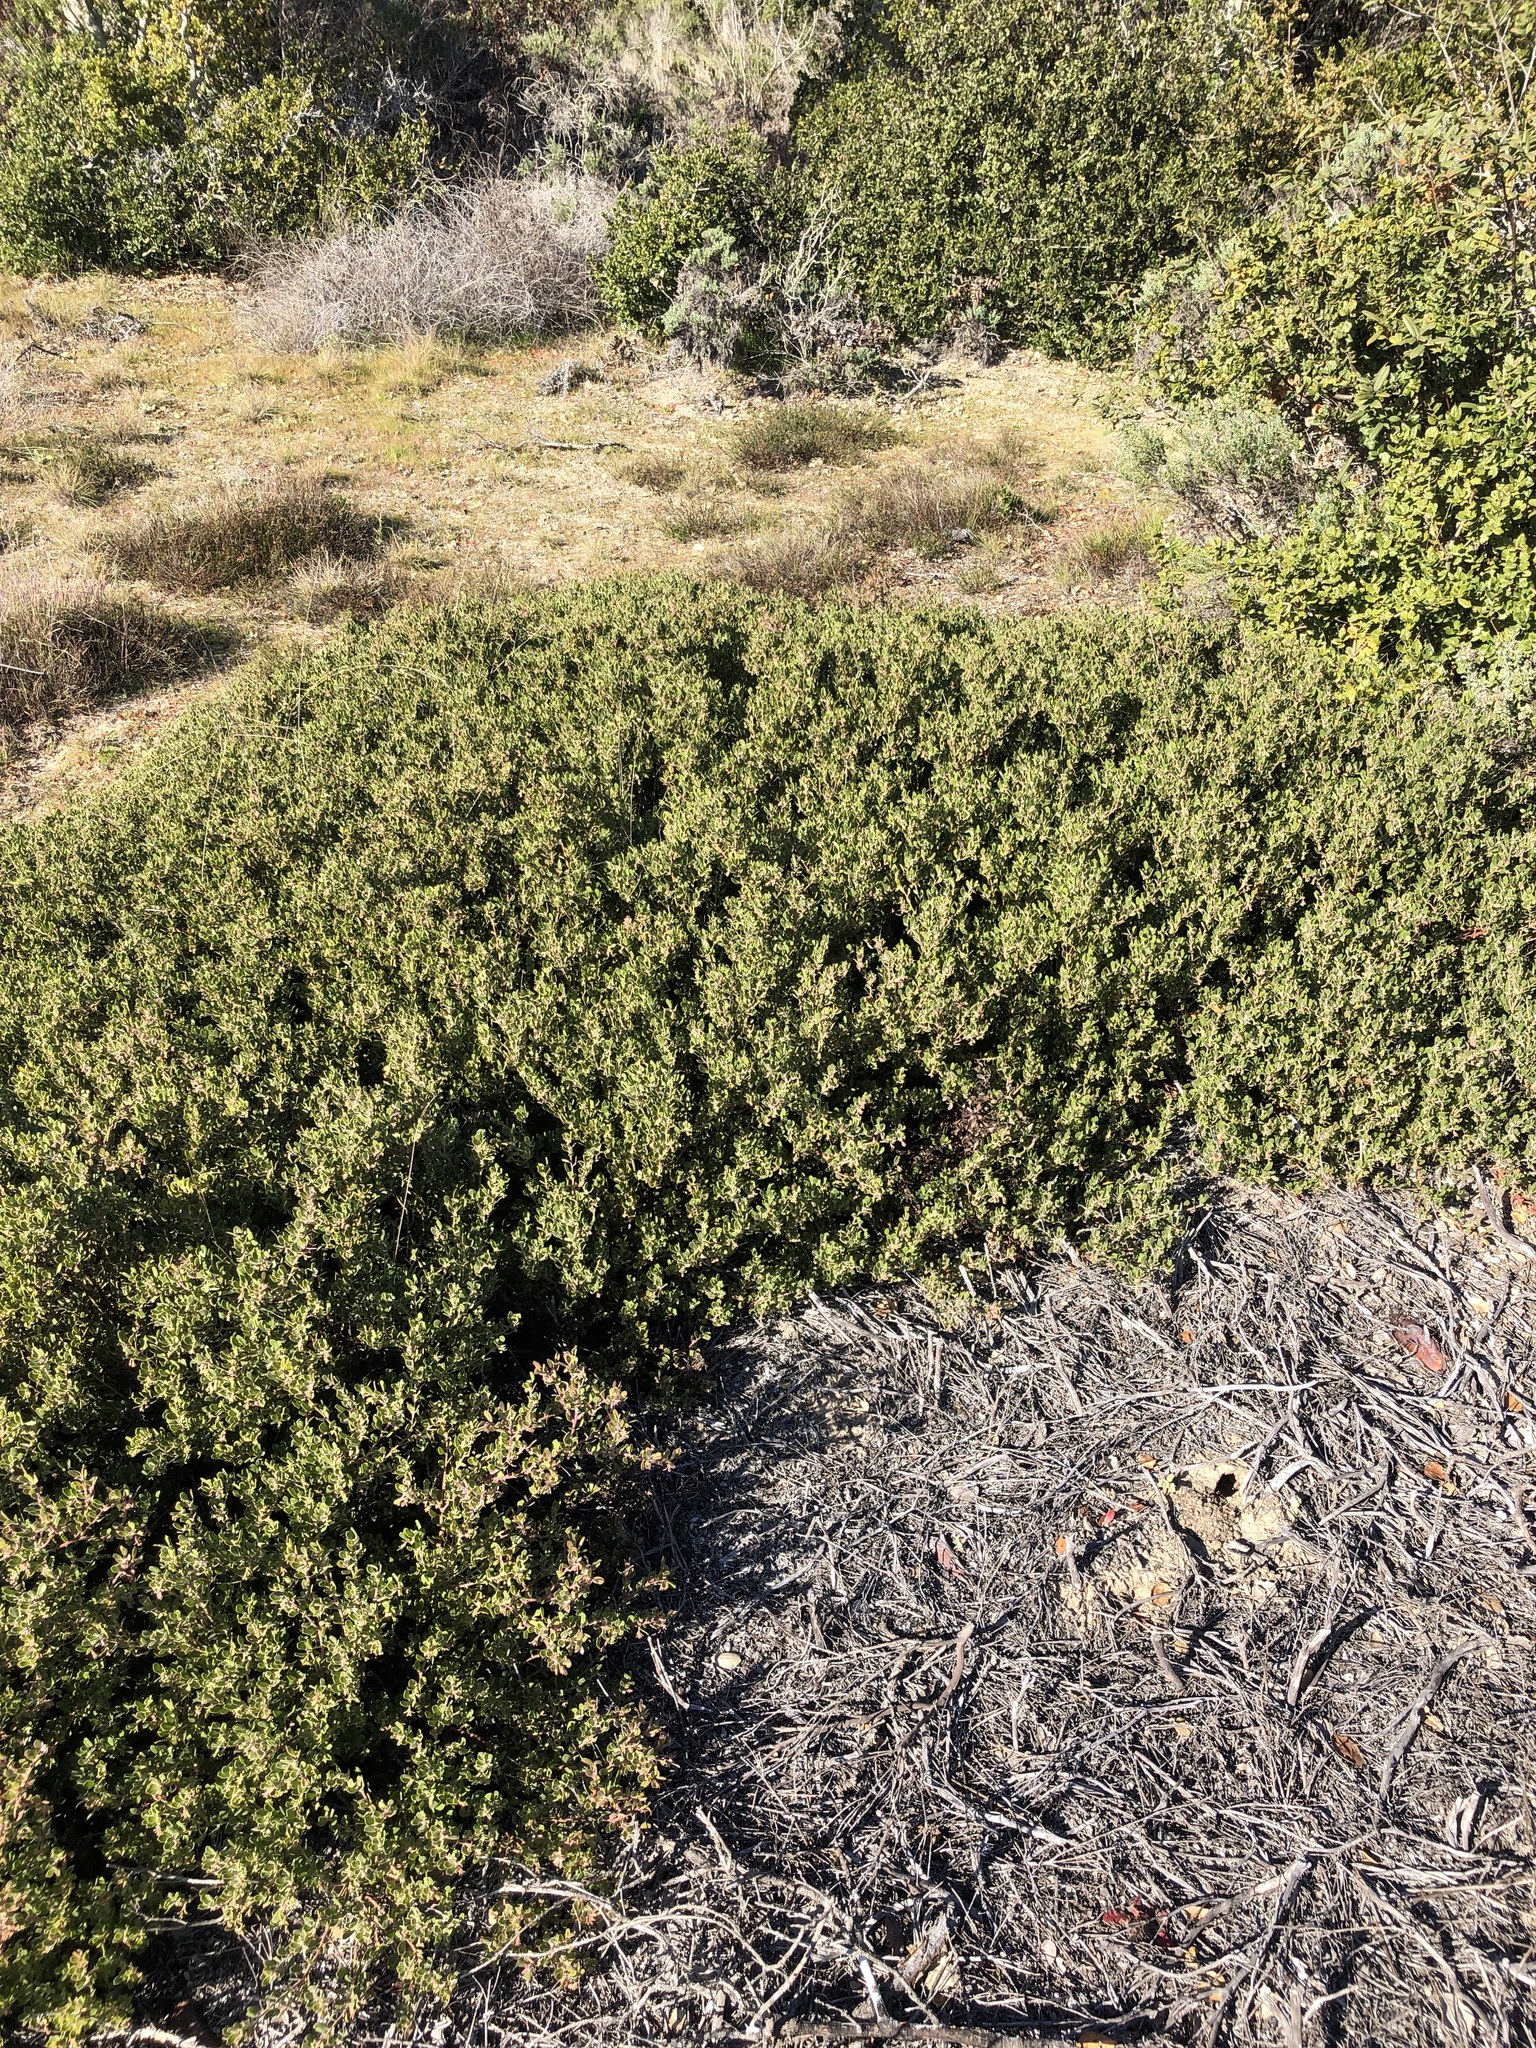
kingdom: Plantae
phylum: Tracheophyta
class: Magnoliopsida
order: Ericales
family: Ericaceae
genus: Arctostaphylos
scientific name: Arctostaphylos pumila
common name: Sandmat manzanita
